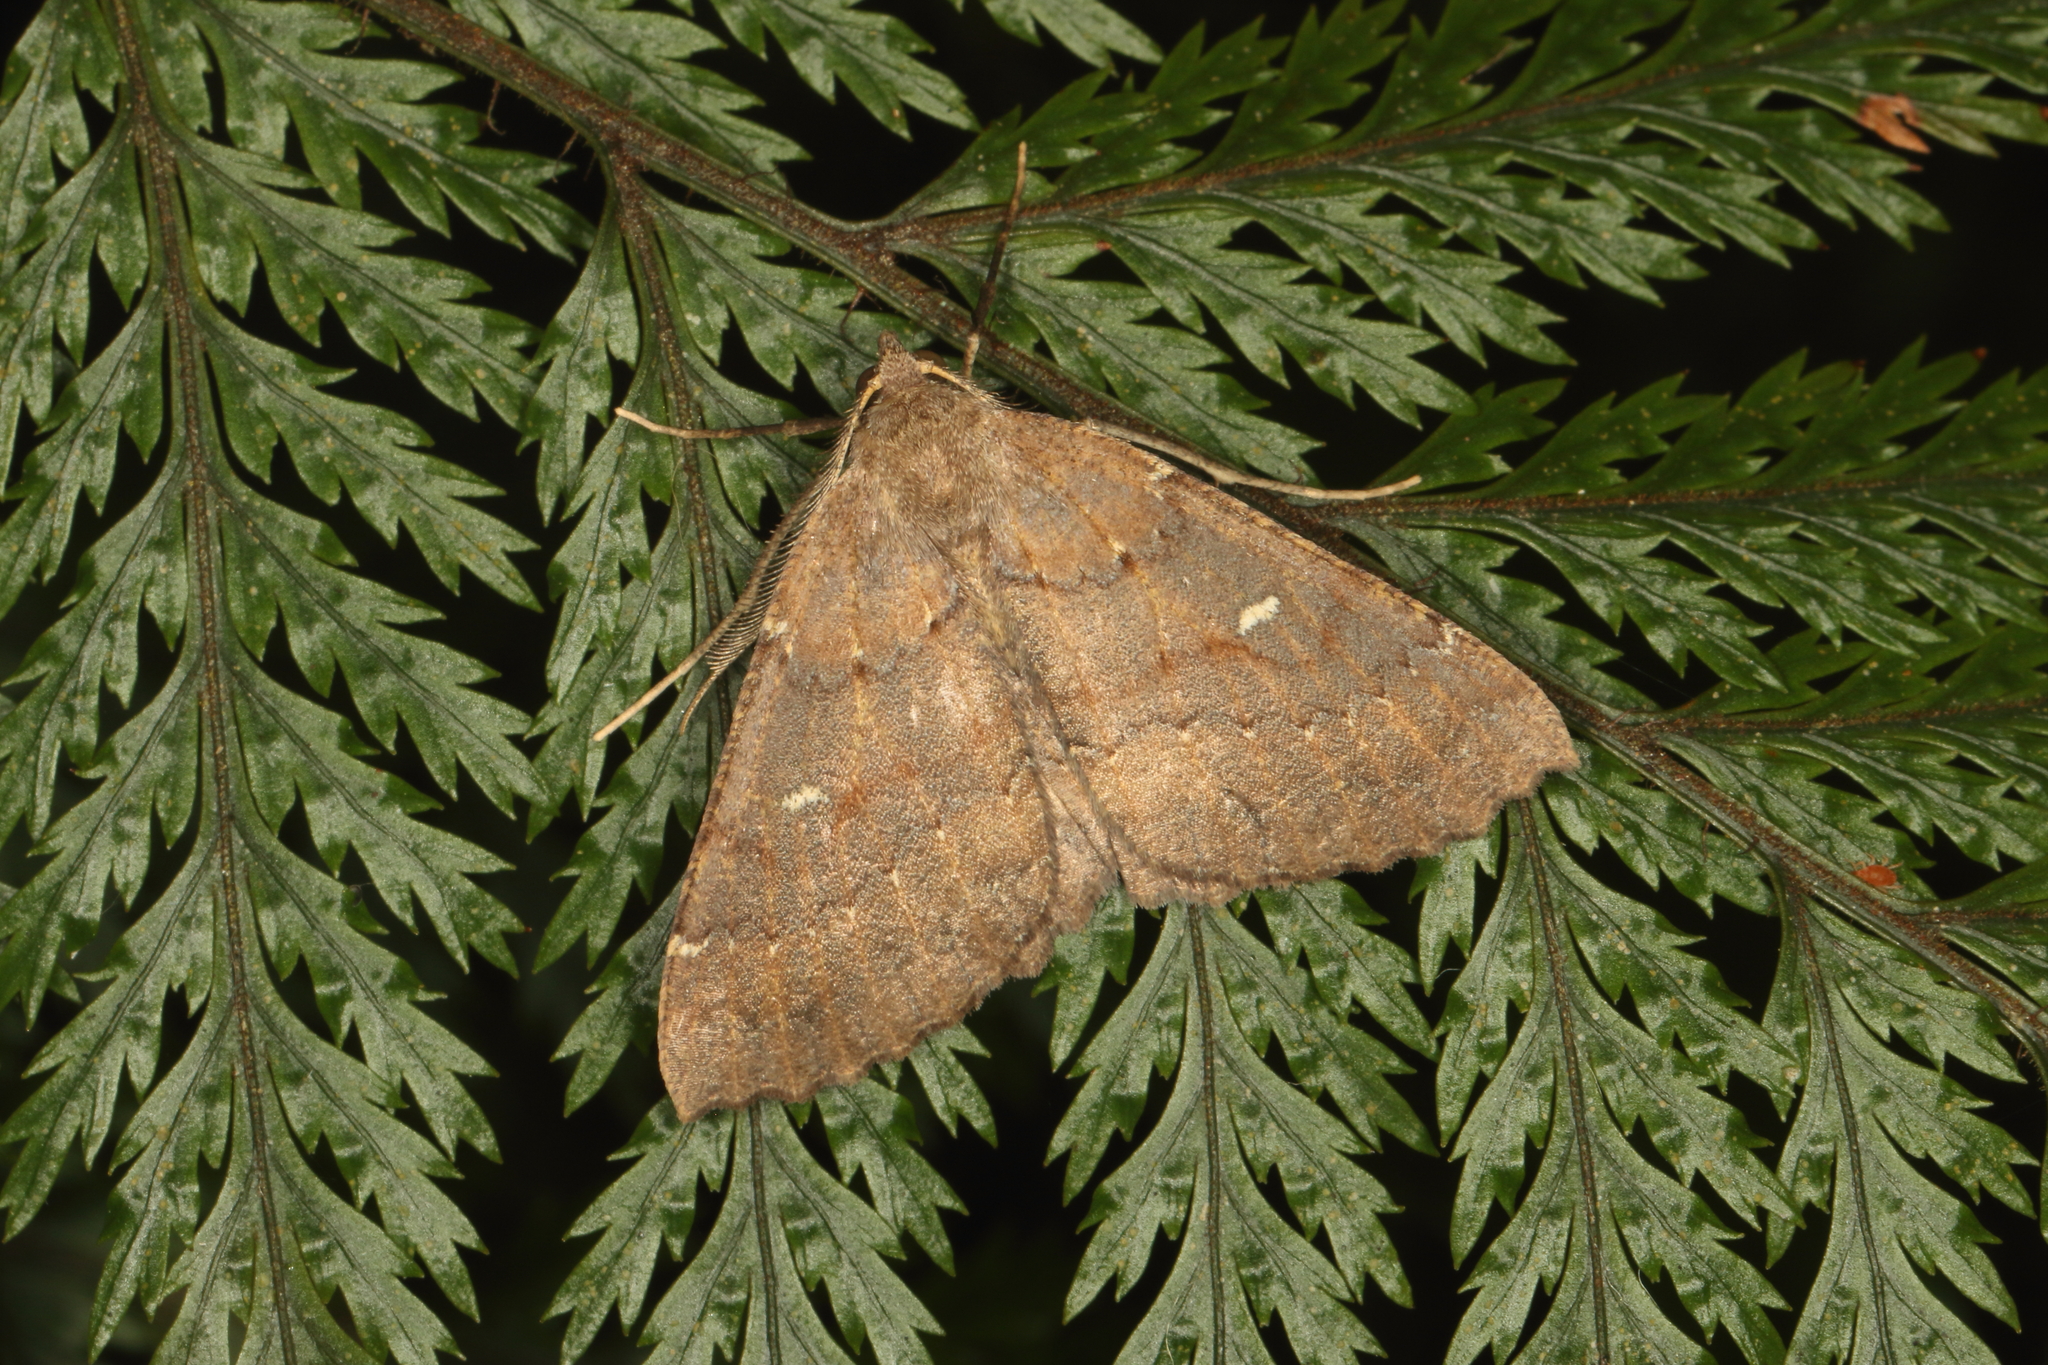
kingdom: Animalia
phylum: Arthropoda
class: Insecta
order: Lepidoptera
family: Geometridae
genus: Cleora
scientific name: Cleora scriptaria
